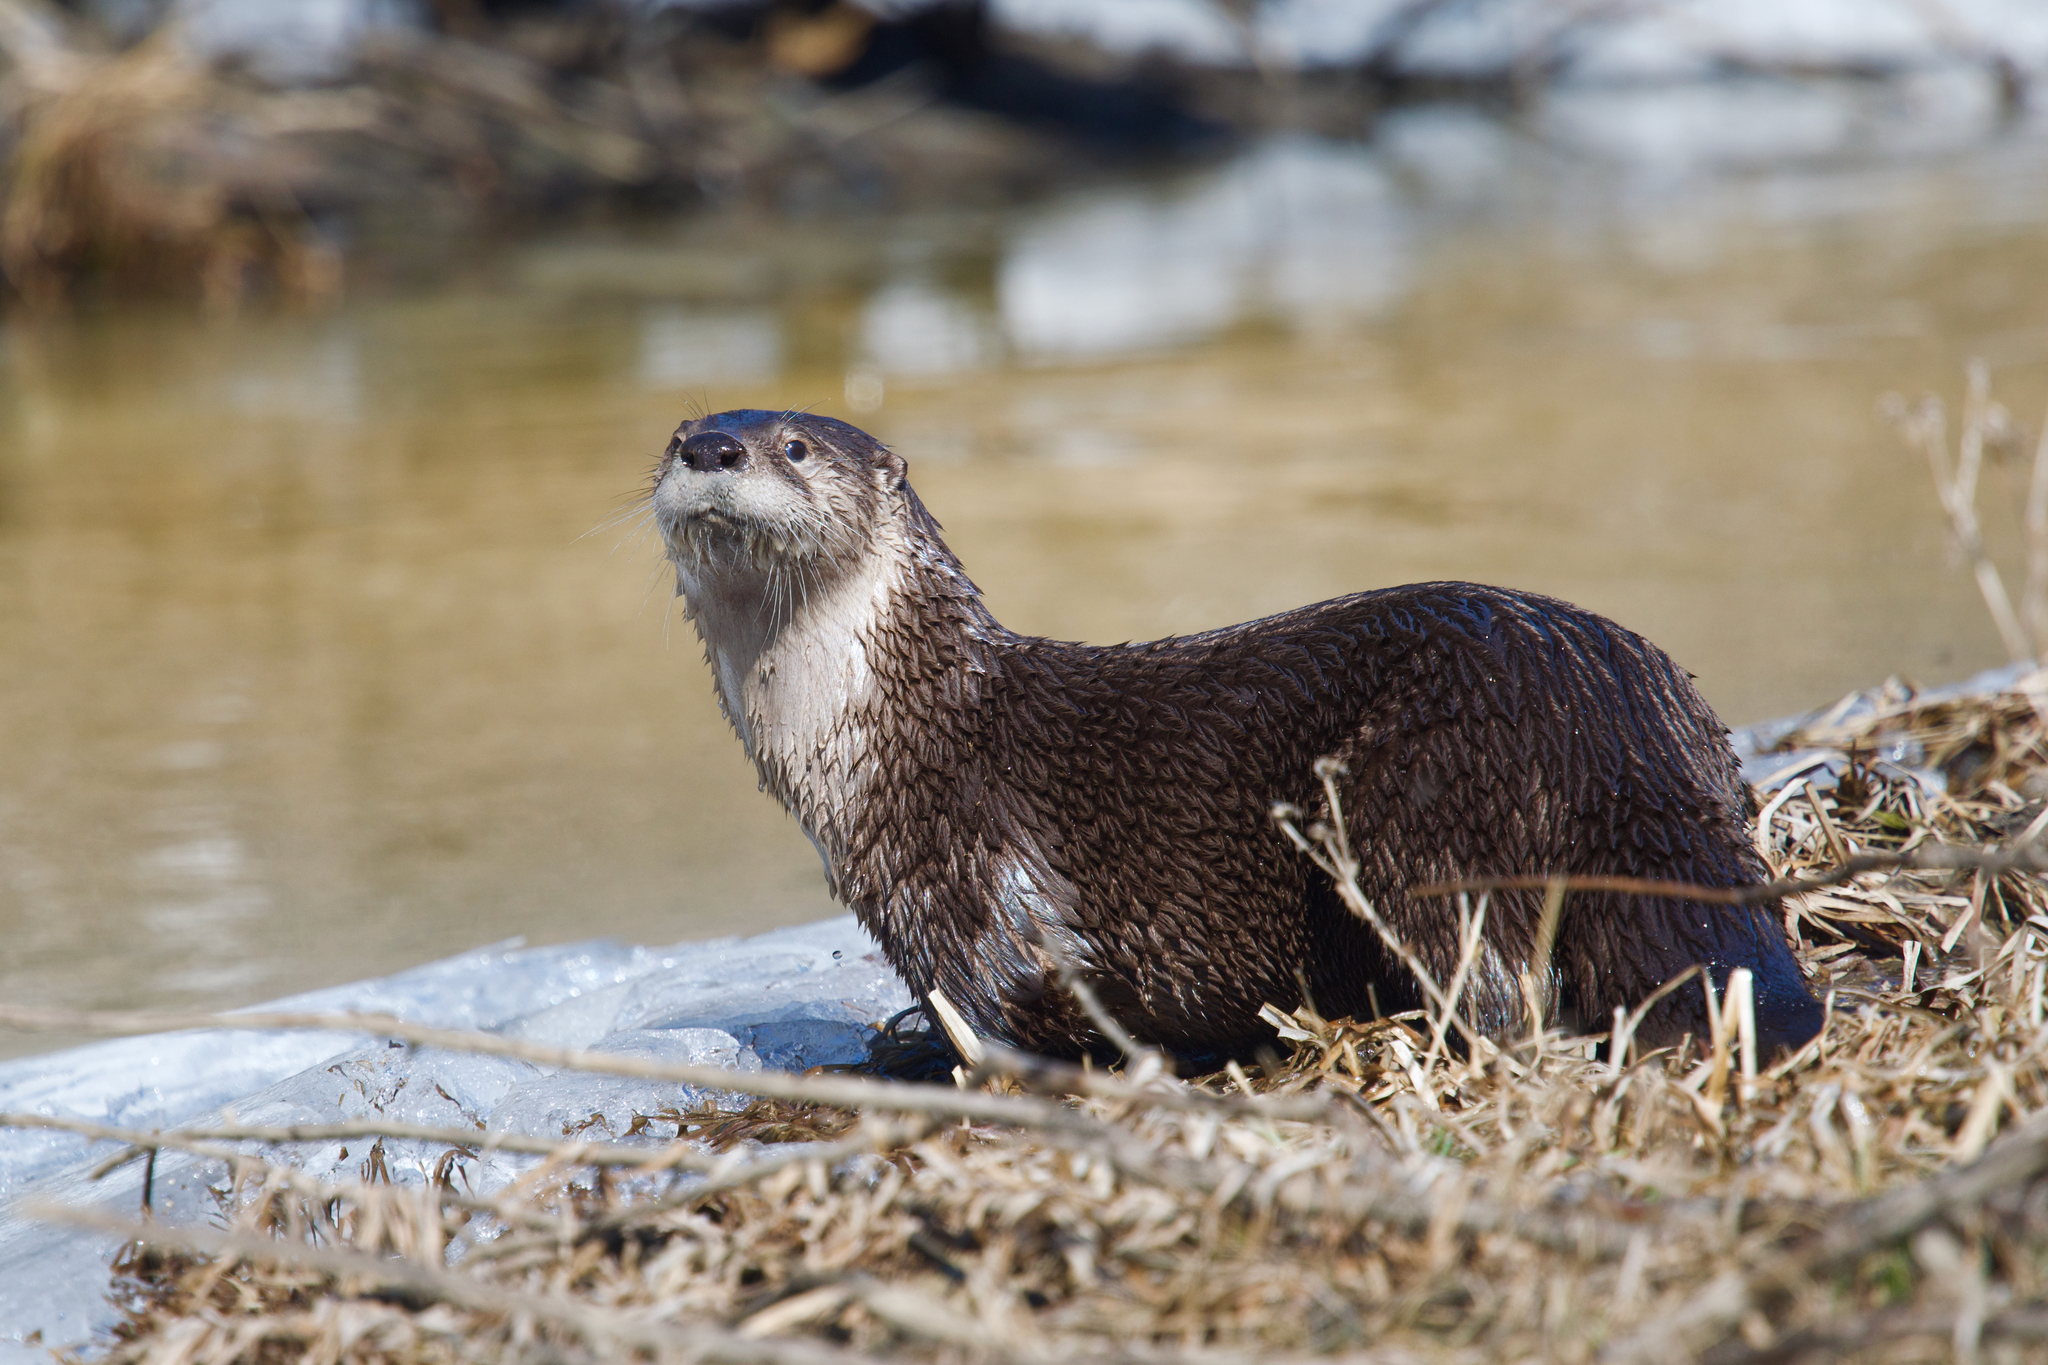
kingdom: Animalia
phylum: Chordata
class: Mammalia
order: Carnivora
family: Mustelidae
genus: Lontra
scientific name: Lontra canadensis
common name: North american river otter
